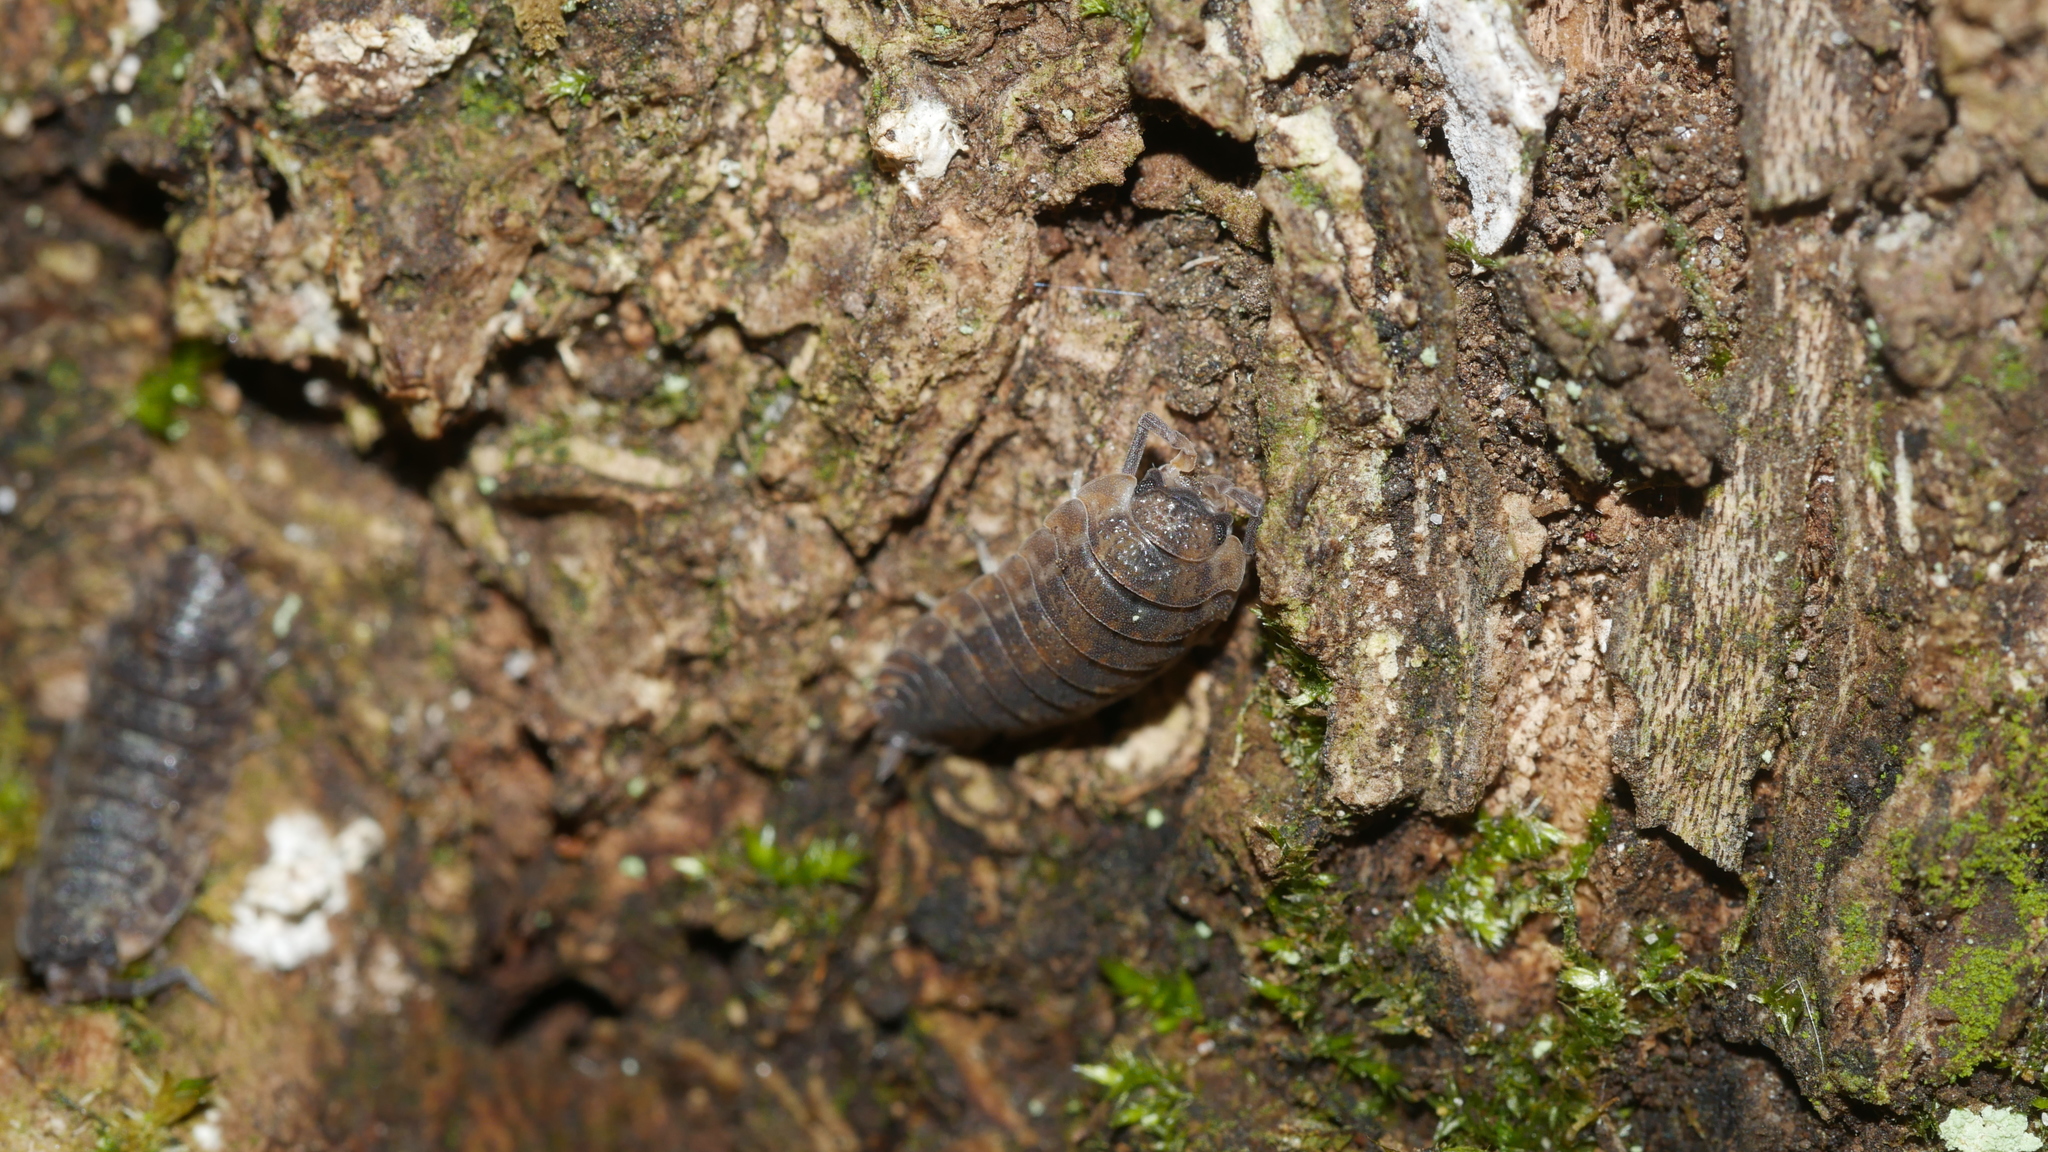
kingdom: Animalia
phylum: Arthropoda
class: Malacostraca
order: Isopoda
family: Porcellionidae
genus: Porcellio
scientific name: Porcellio scaber
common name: Common rough woodlouse
